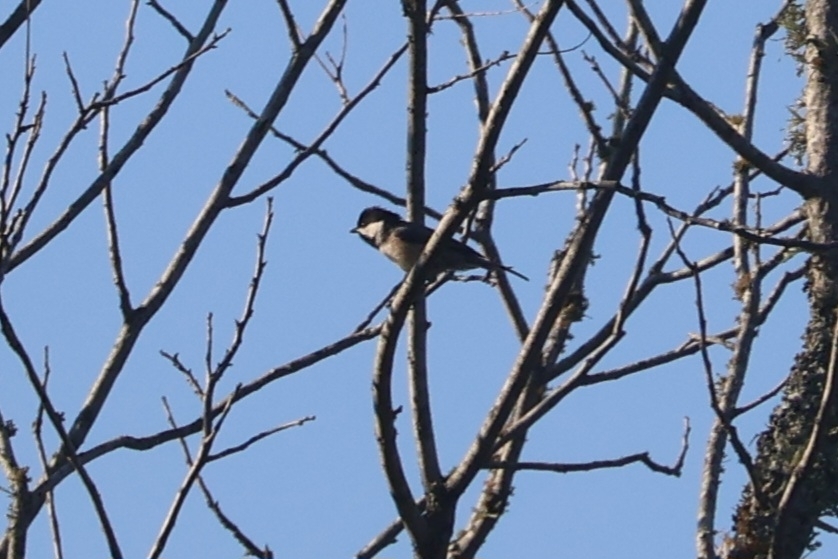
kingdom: Animalia
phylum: Chordata
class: Aves
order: Passeriformes
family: Paridae
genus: Poecile
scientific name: Poecile carolinensis
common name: Carolina chickadee
